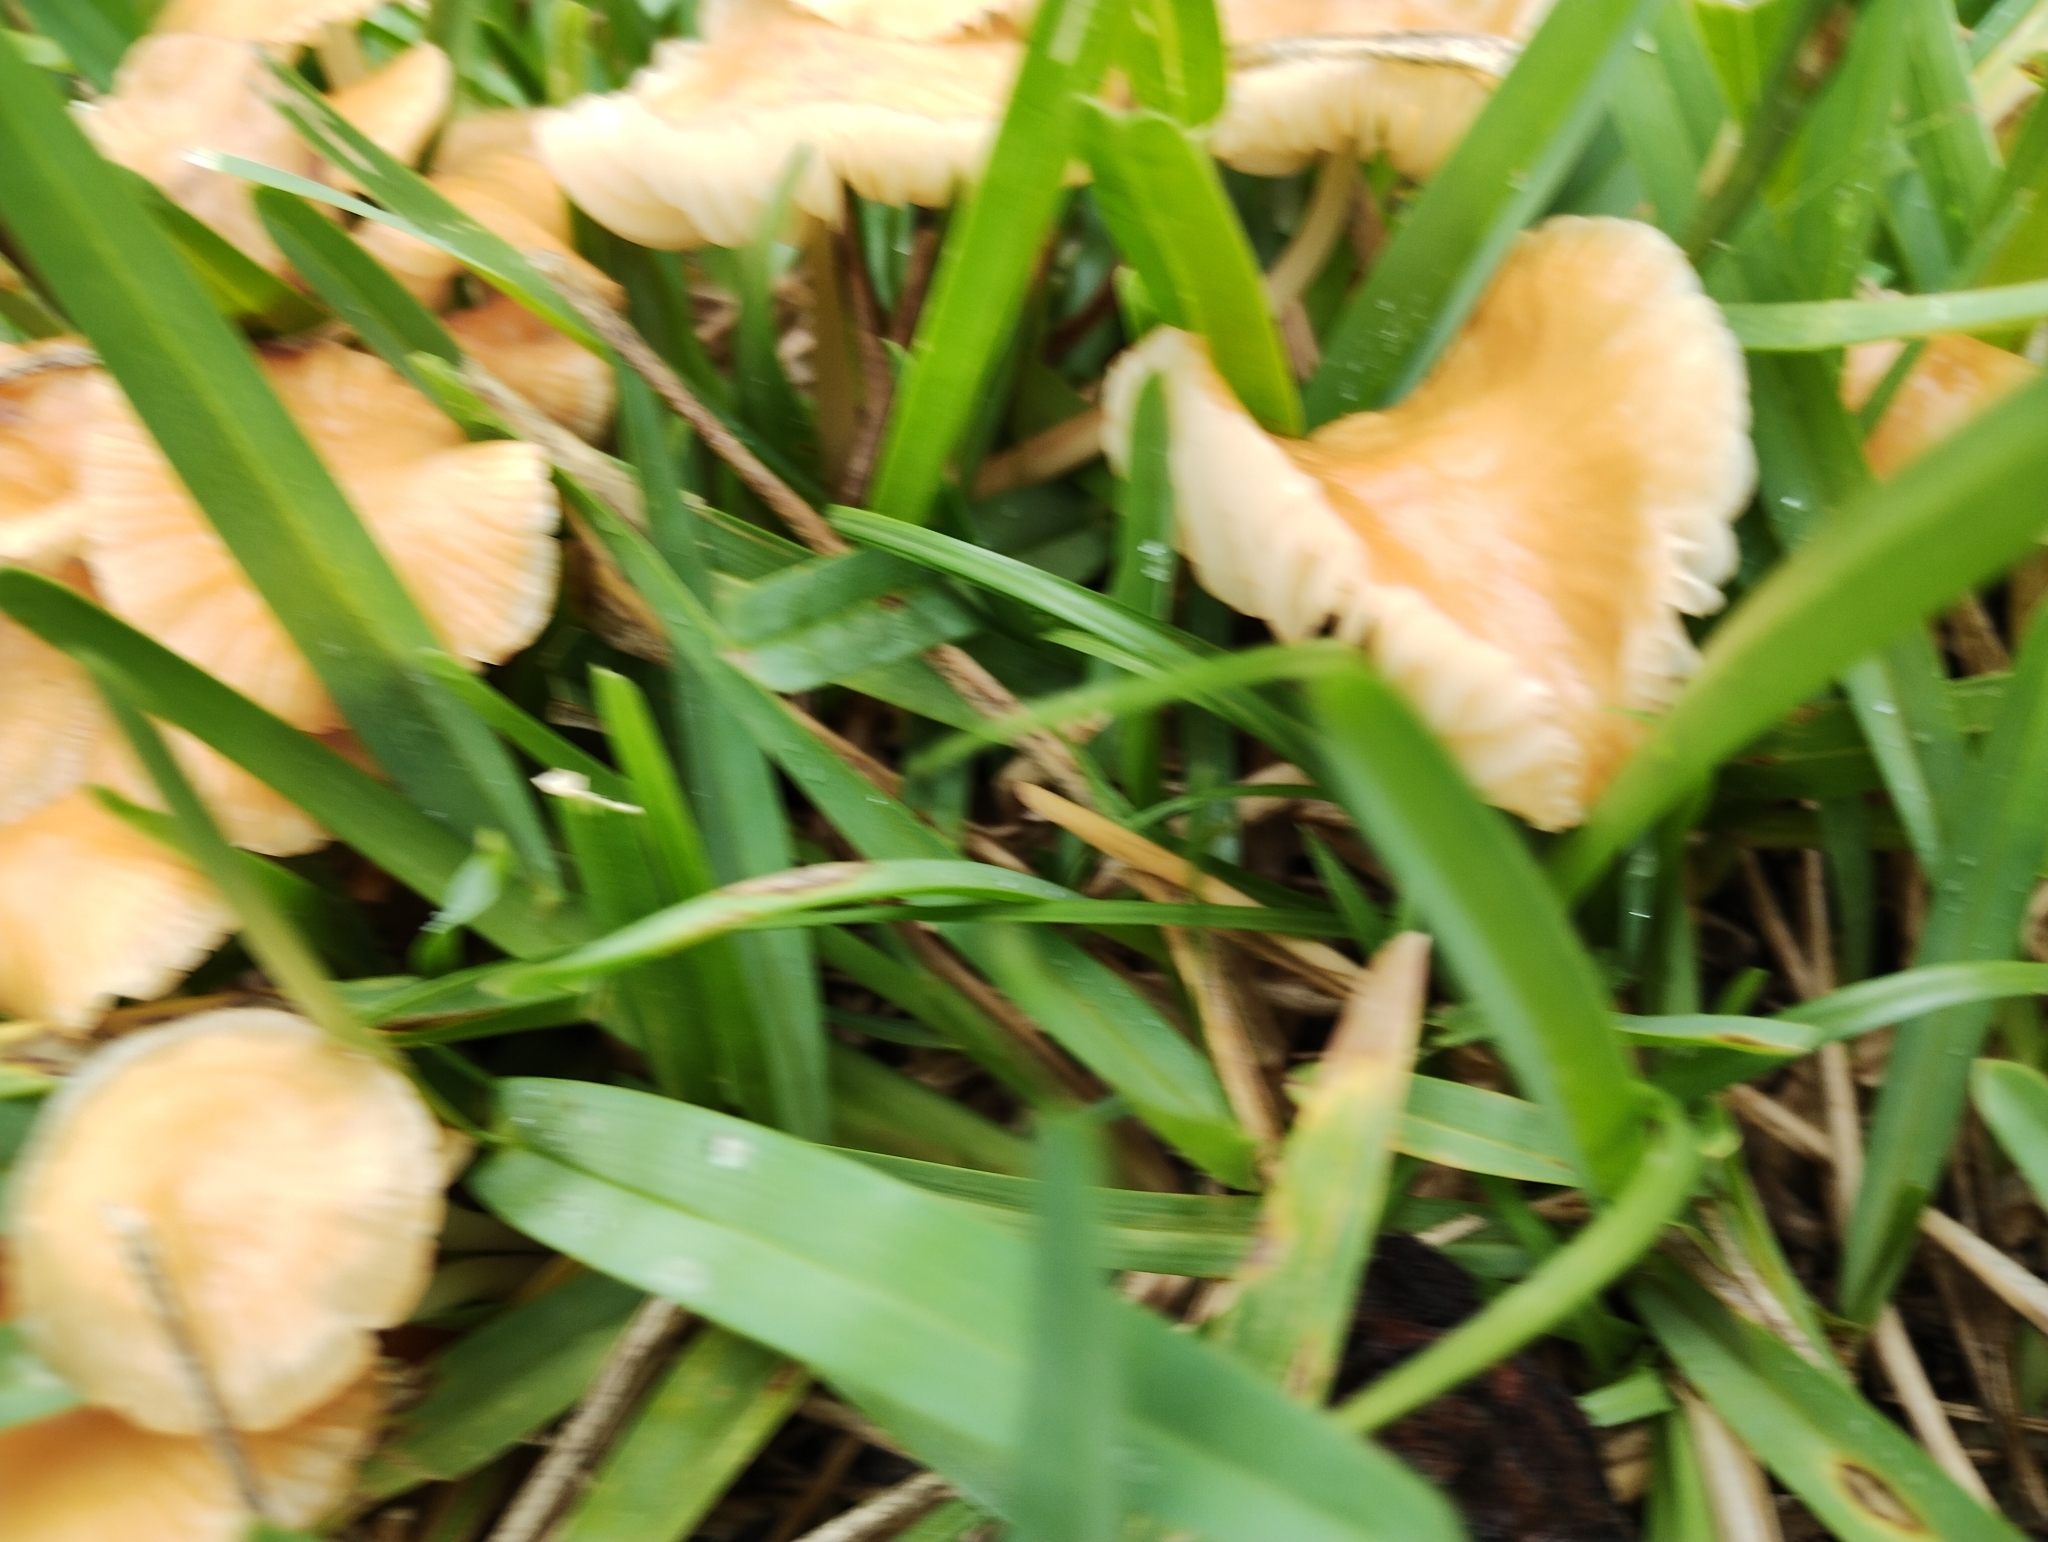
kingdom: Fungi
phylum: Basidiomycota
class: Agaricomycetes
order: Agaricales
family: Marasmiaceae
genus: Marasmius
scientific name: Marasmius oreades
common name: Fairy ring champignon
